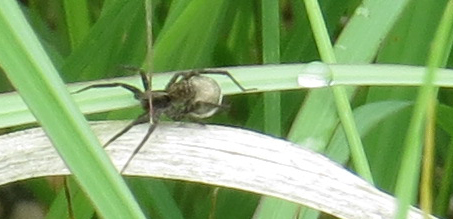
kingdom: Animalia
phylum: Arthropoda
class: Arachnida
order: Araneae
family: Lycosidae
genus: Pardosa
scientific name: Pardosa
